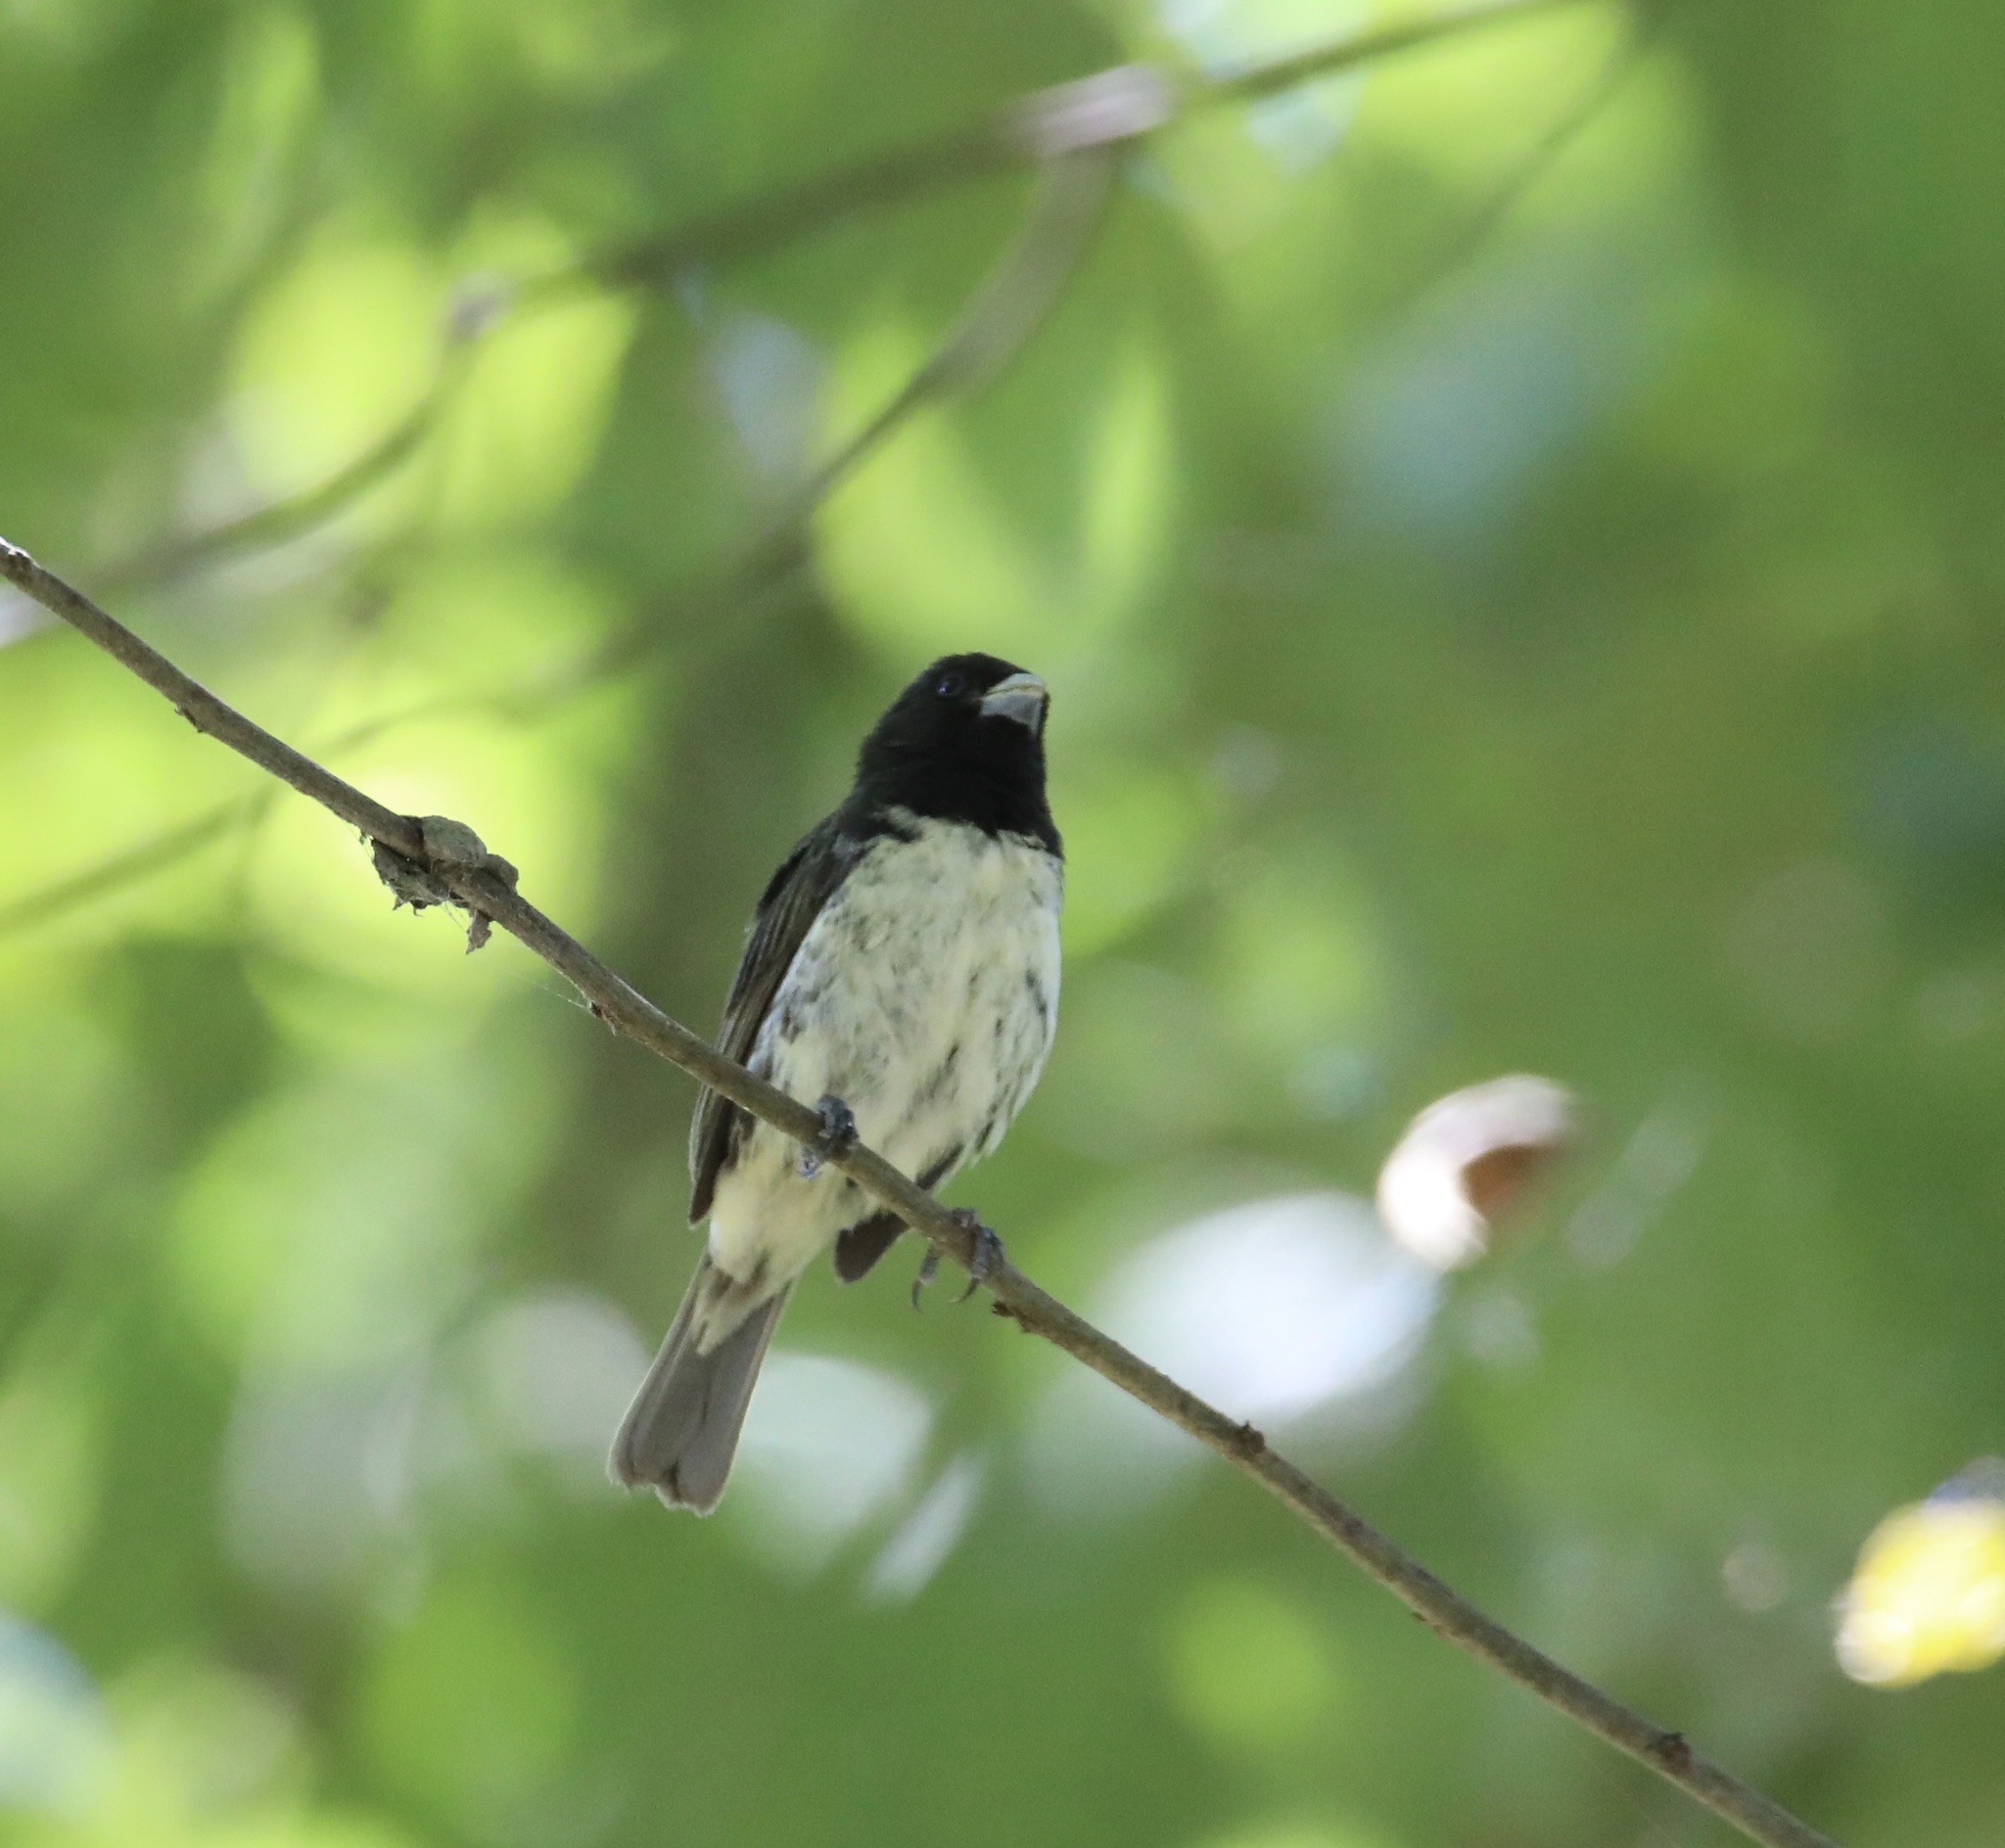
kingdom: Animalia
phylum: Chordata
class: Aves
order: Passeriformes
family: Thraupidae
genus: Sporophila
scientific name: Sporophila nigricollis
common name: Yellow-bellied seedeater
